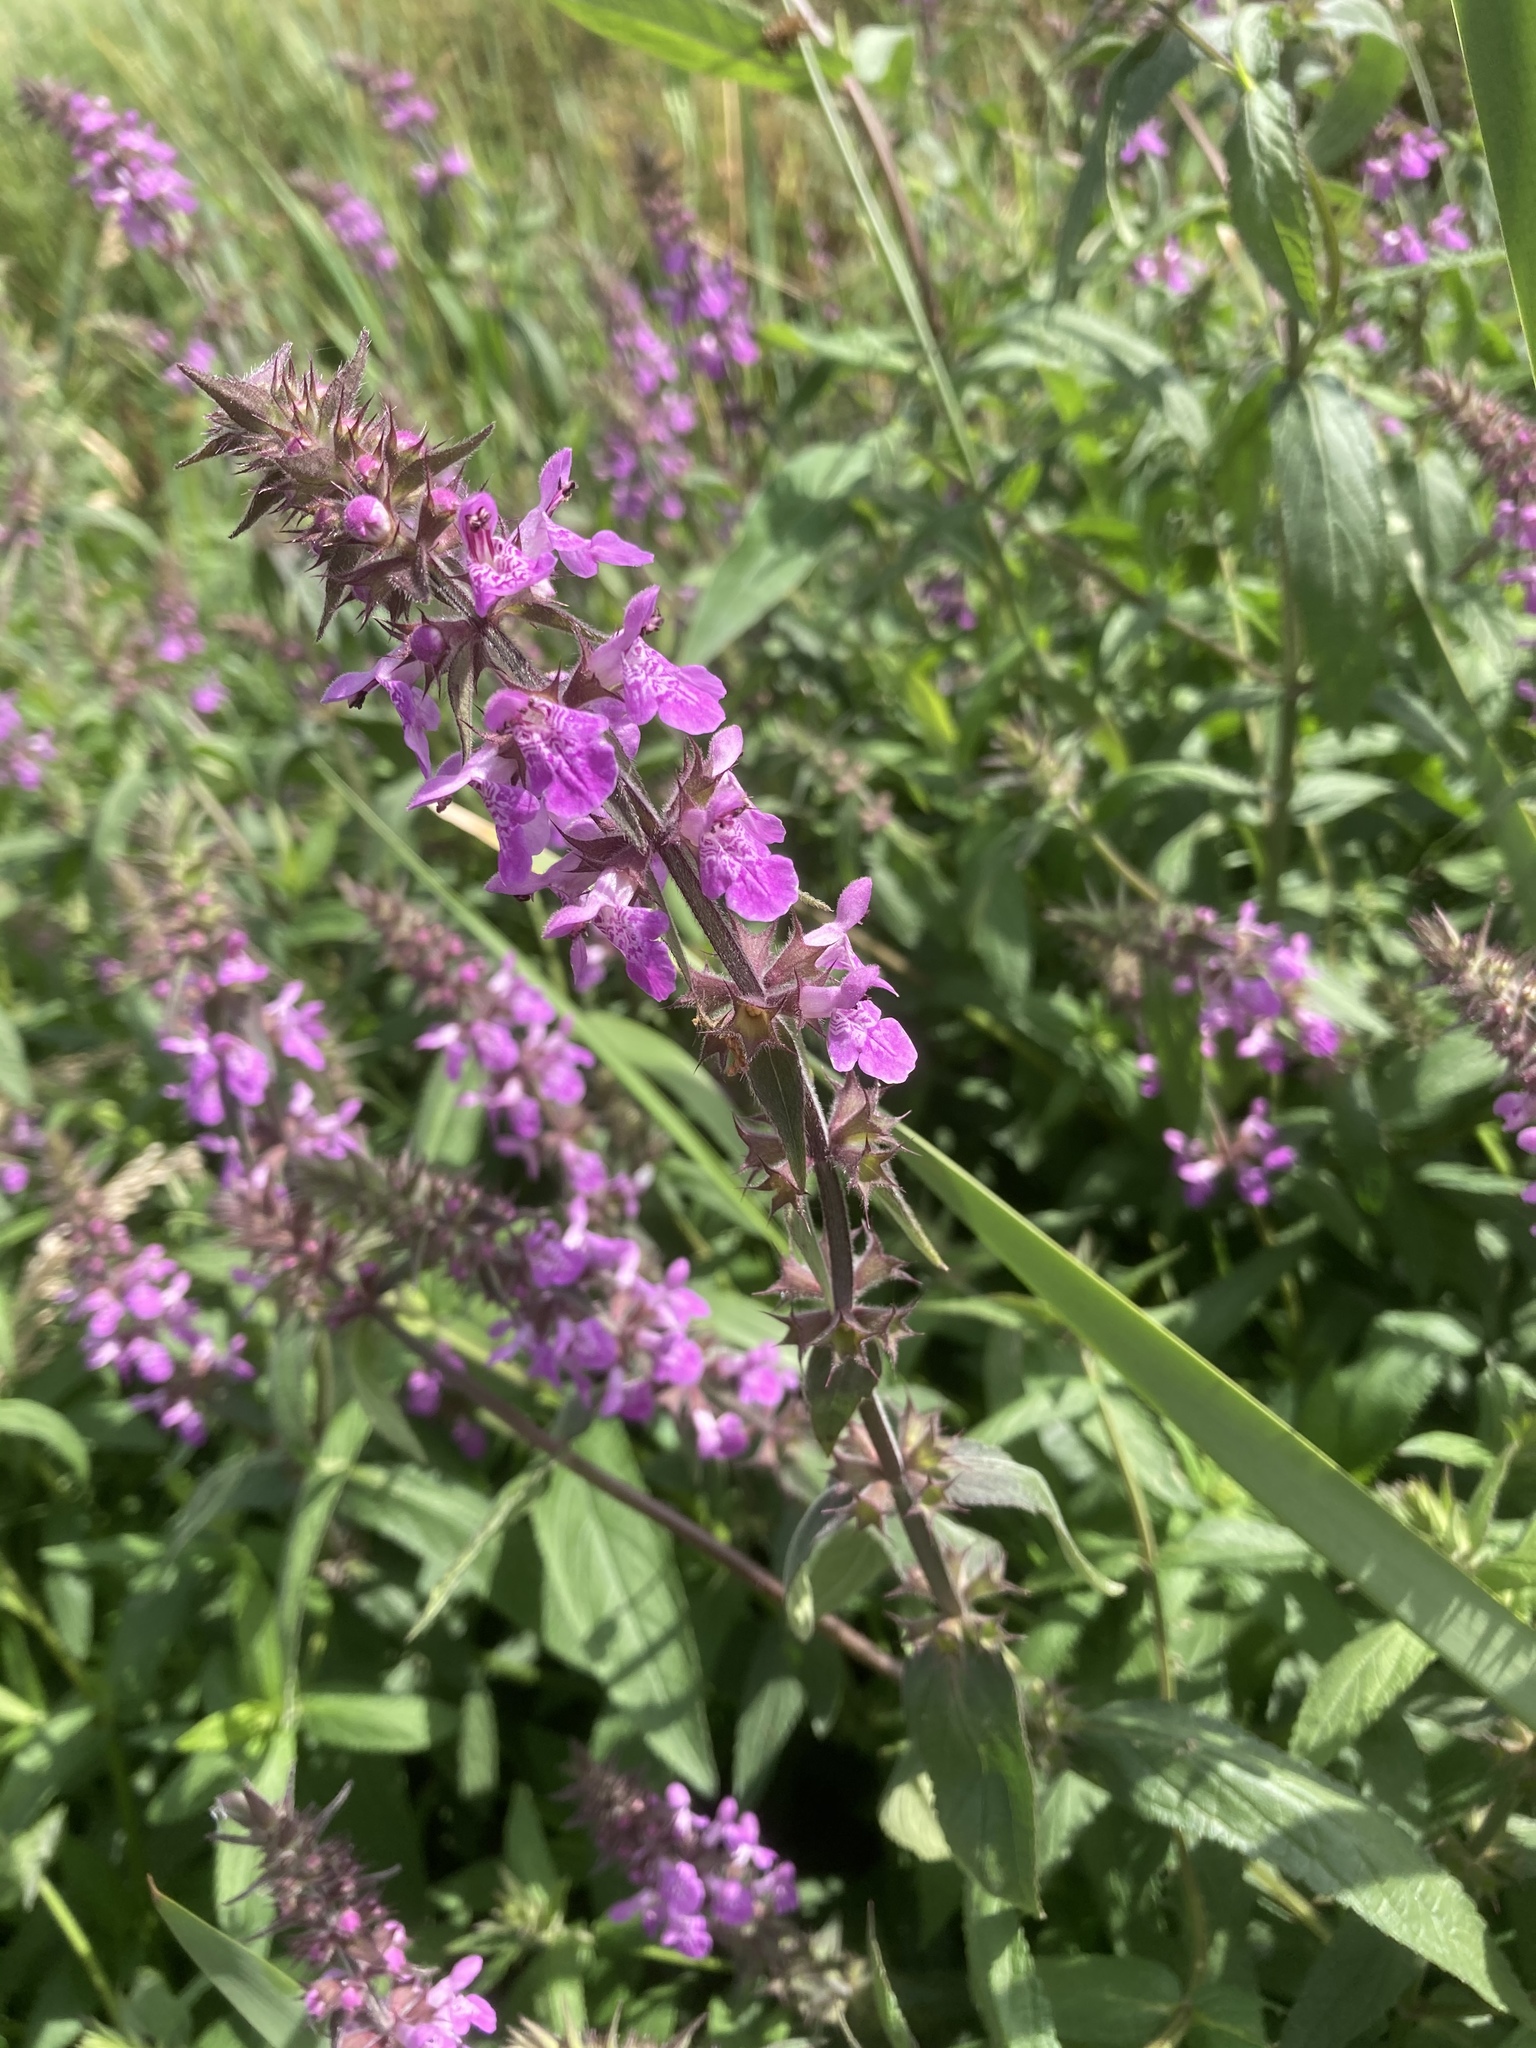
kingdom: Plantae
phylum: Tracheophyta
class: Magnoliopsida
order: Lamiales
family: Lamiaceae
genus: Stachys
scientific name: Stachys palustris
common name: Marsh woundwort
